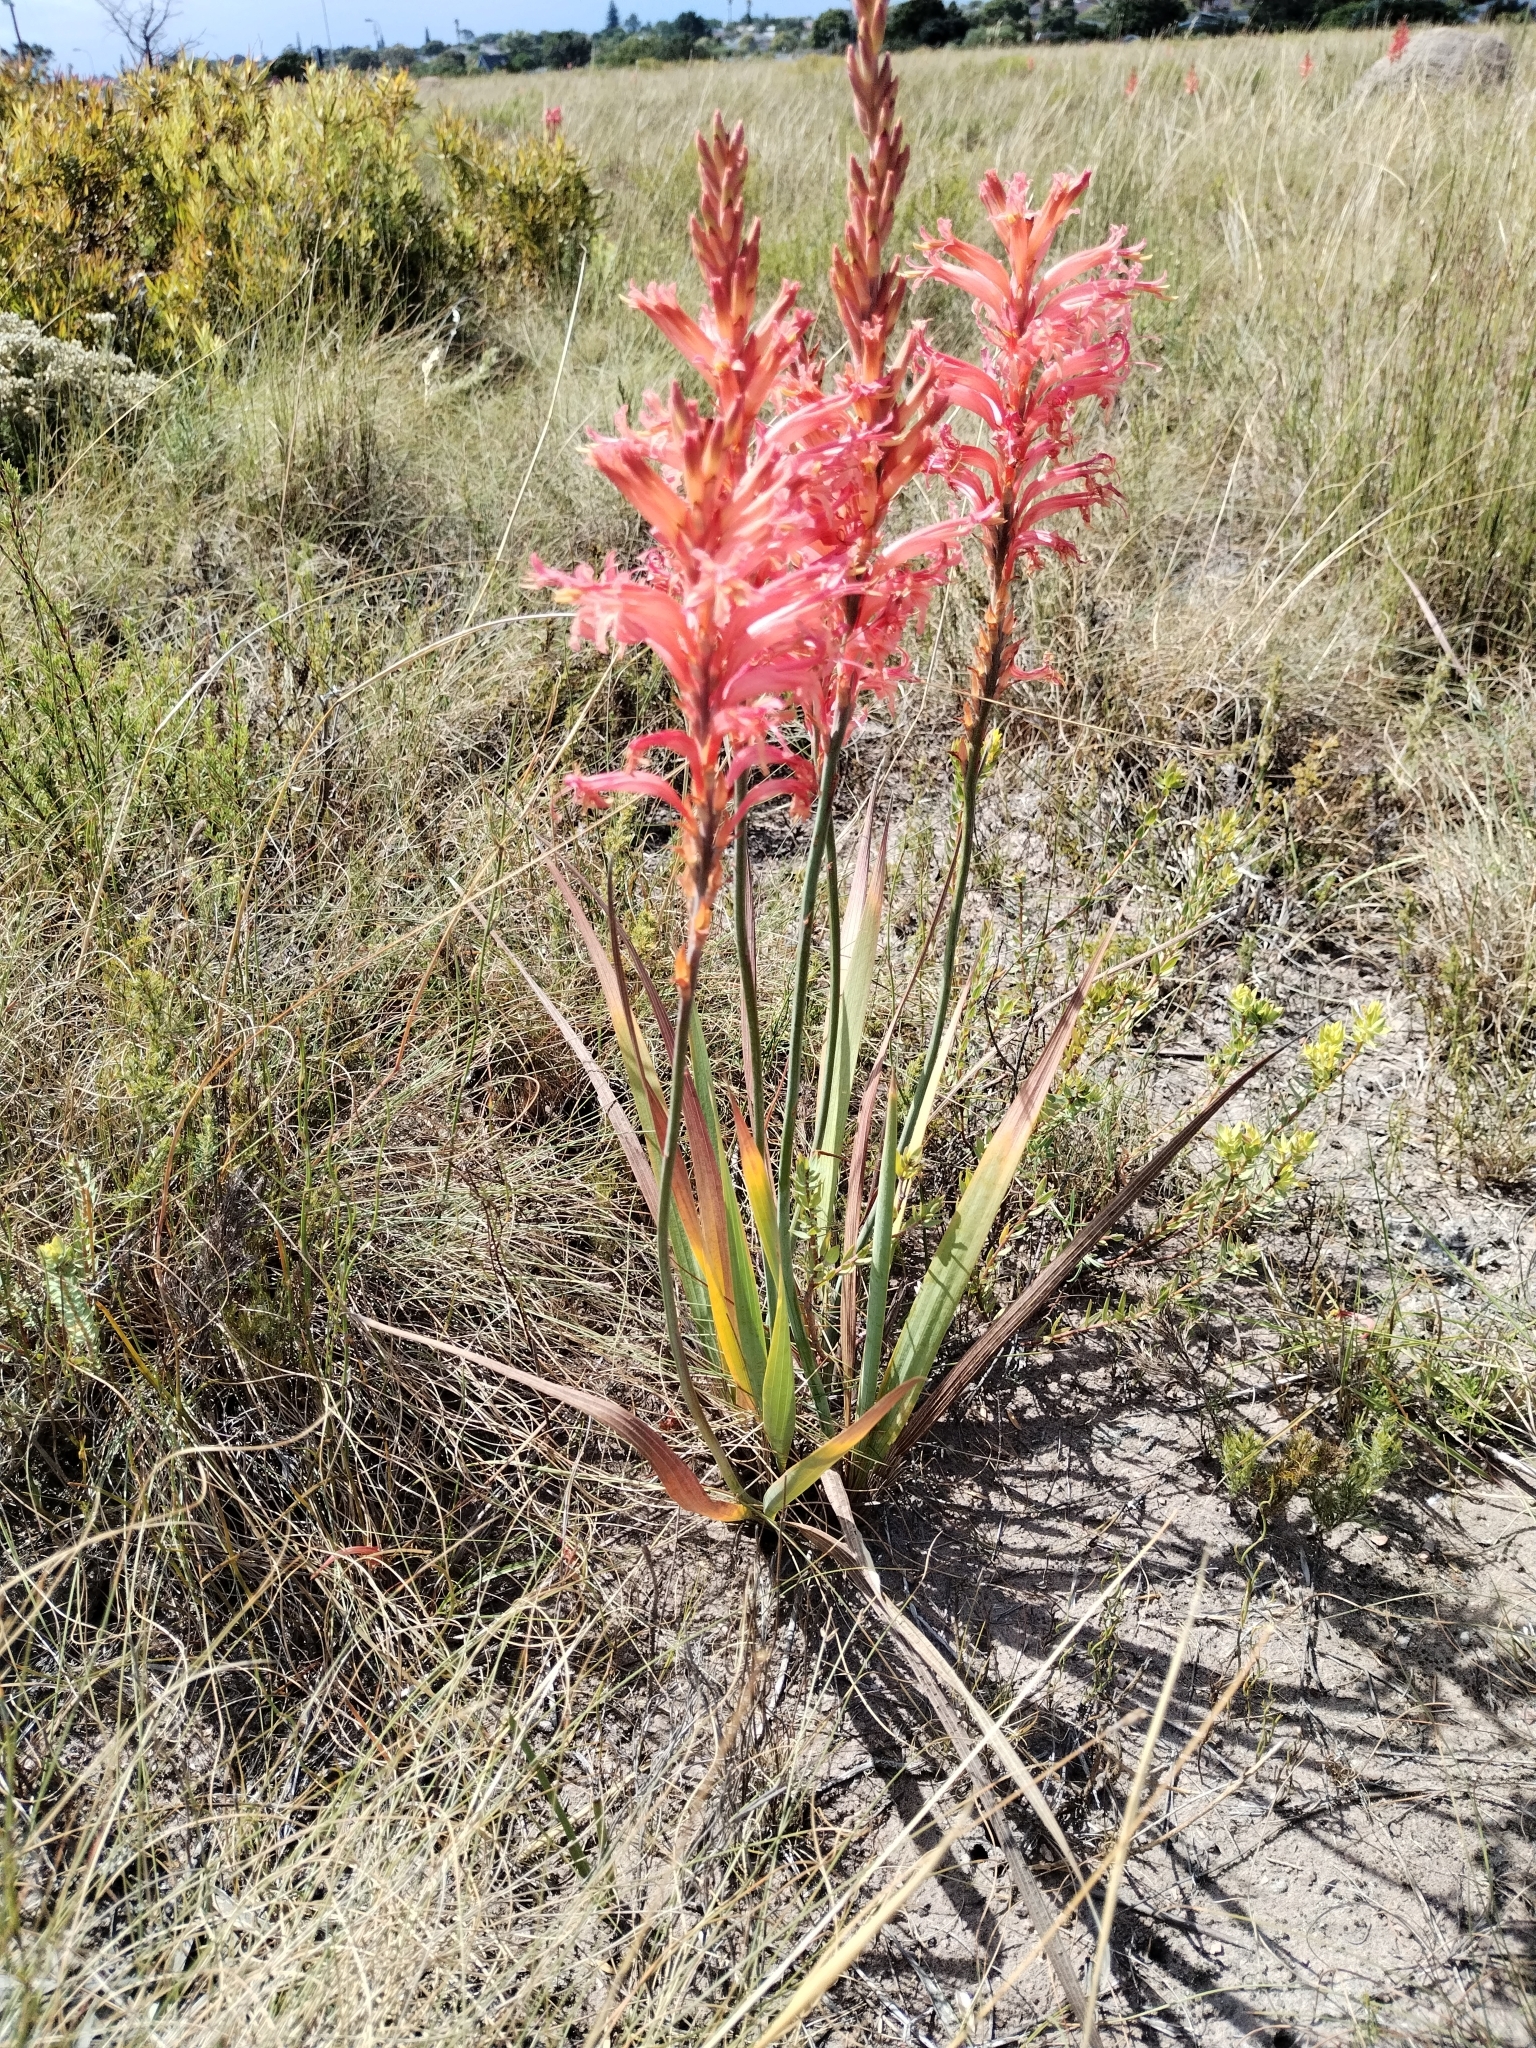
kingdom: Plantae
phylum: Tracheophyta
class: Liliopsida
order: Asparagales
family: Iridaceae
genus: Tritoniopsis
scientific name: Tritoniopsis antholyza
